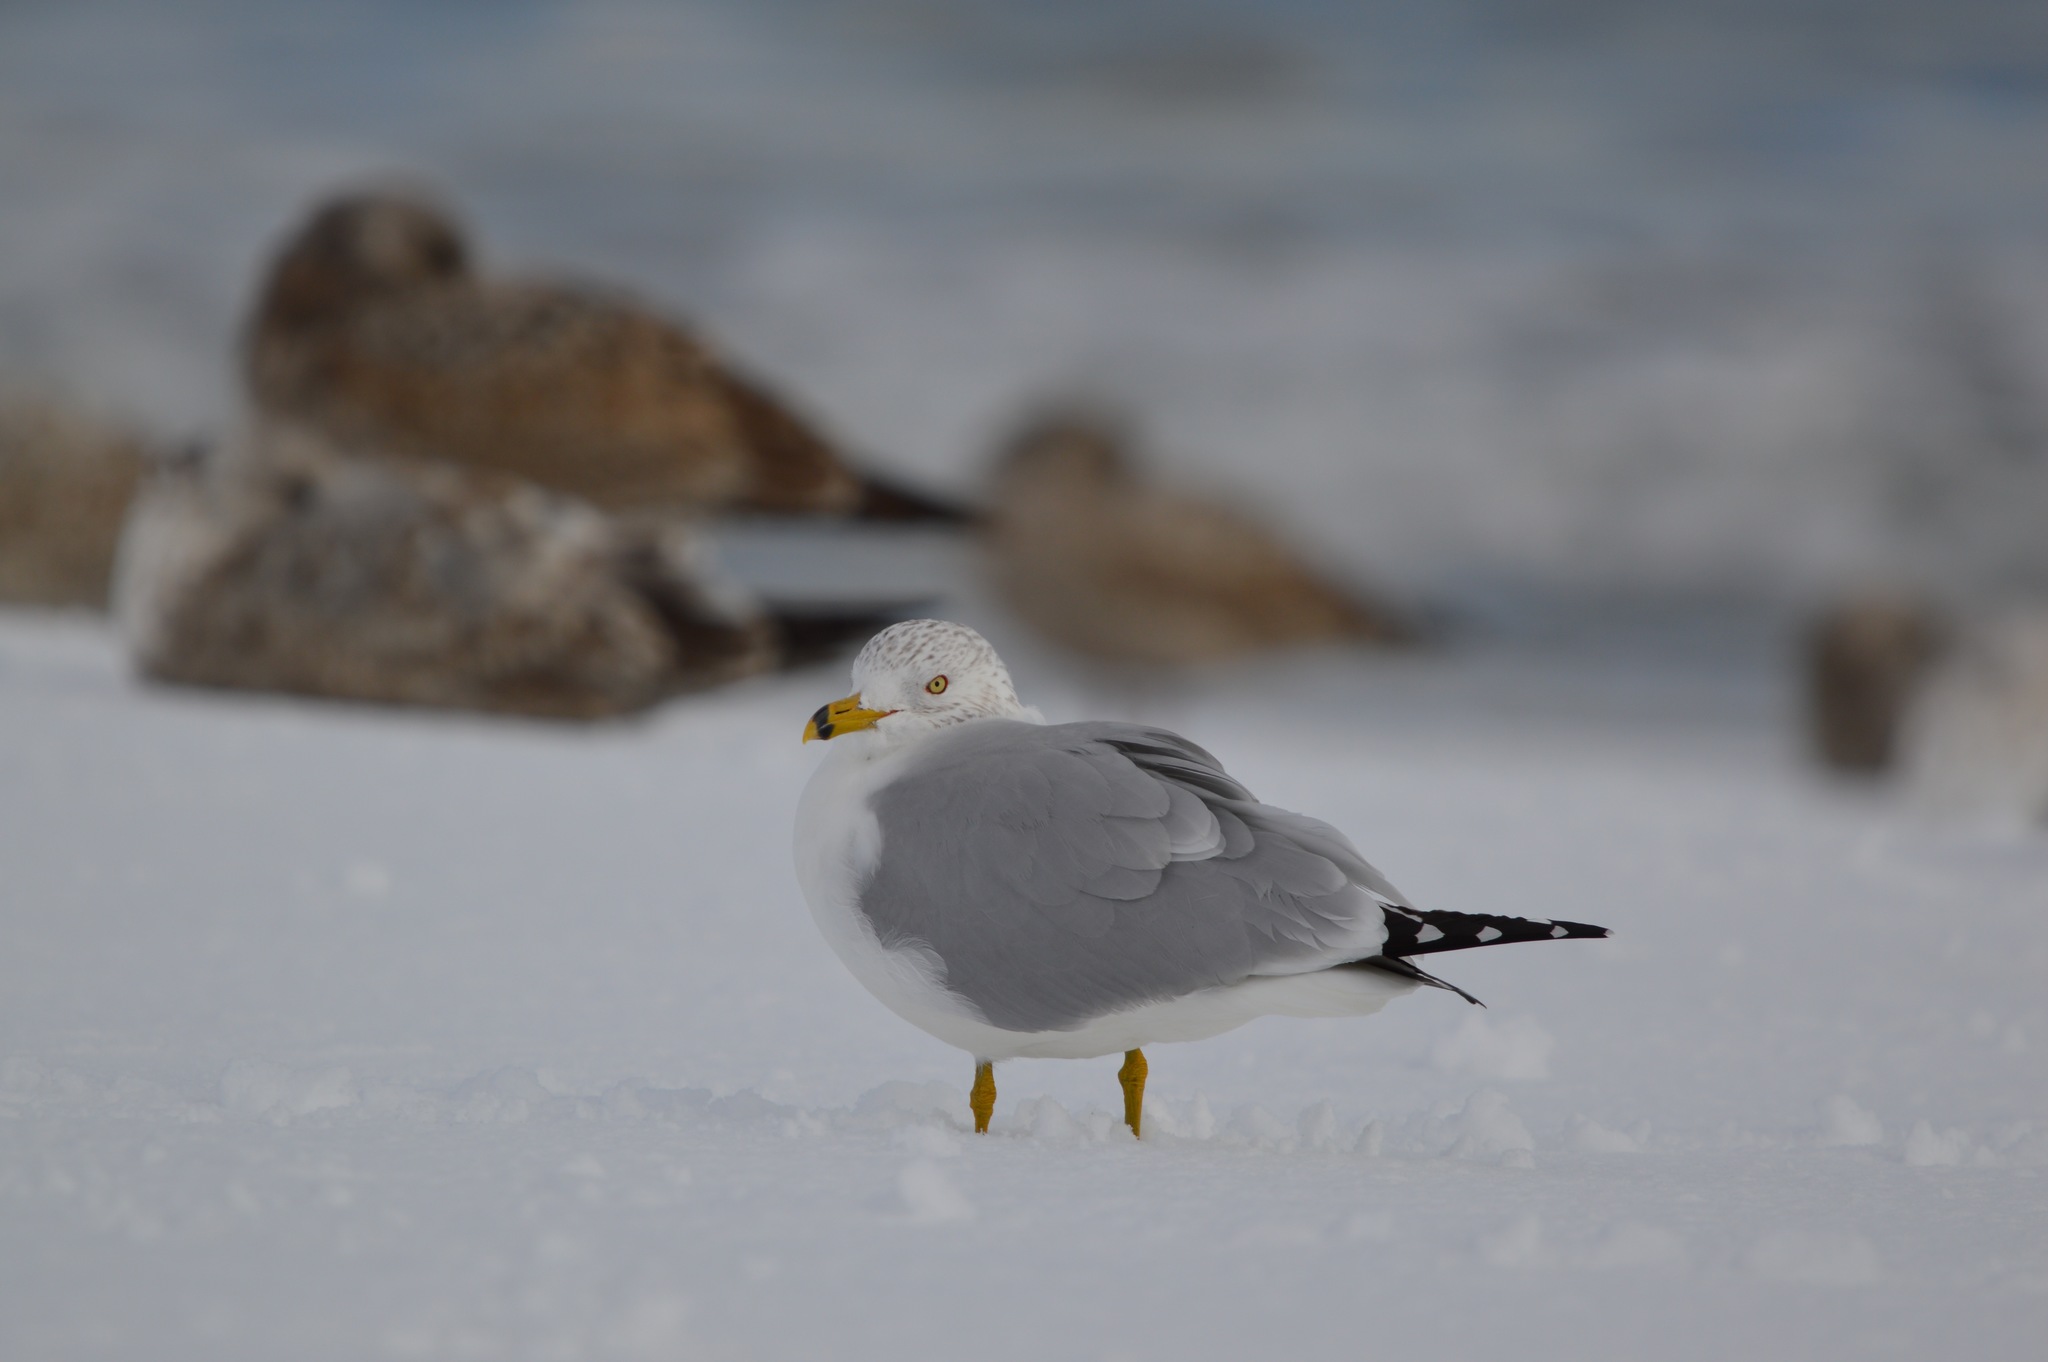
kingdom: Animalia
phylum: Chordata
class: Aves
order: Charadriiformes
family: Laridae
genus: Larus
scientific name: Larus delawarensis
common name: Ring-billed gull
